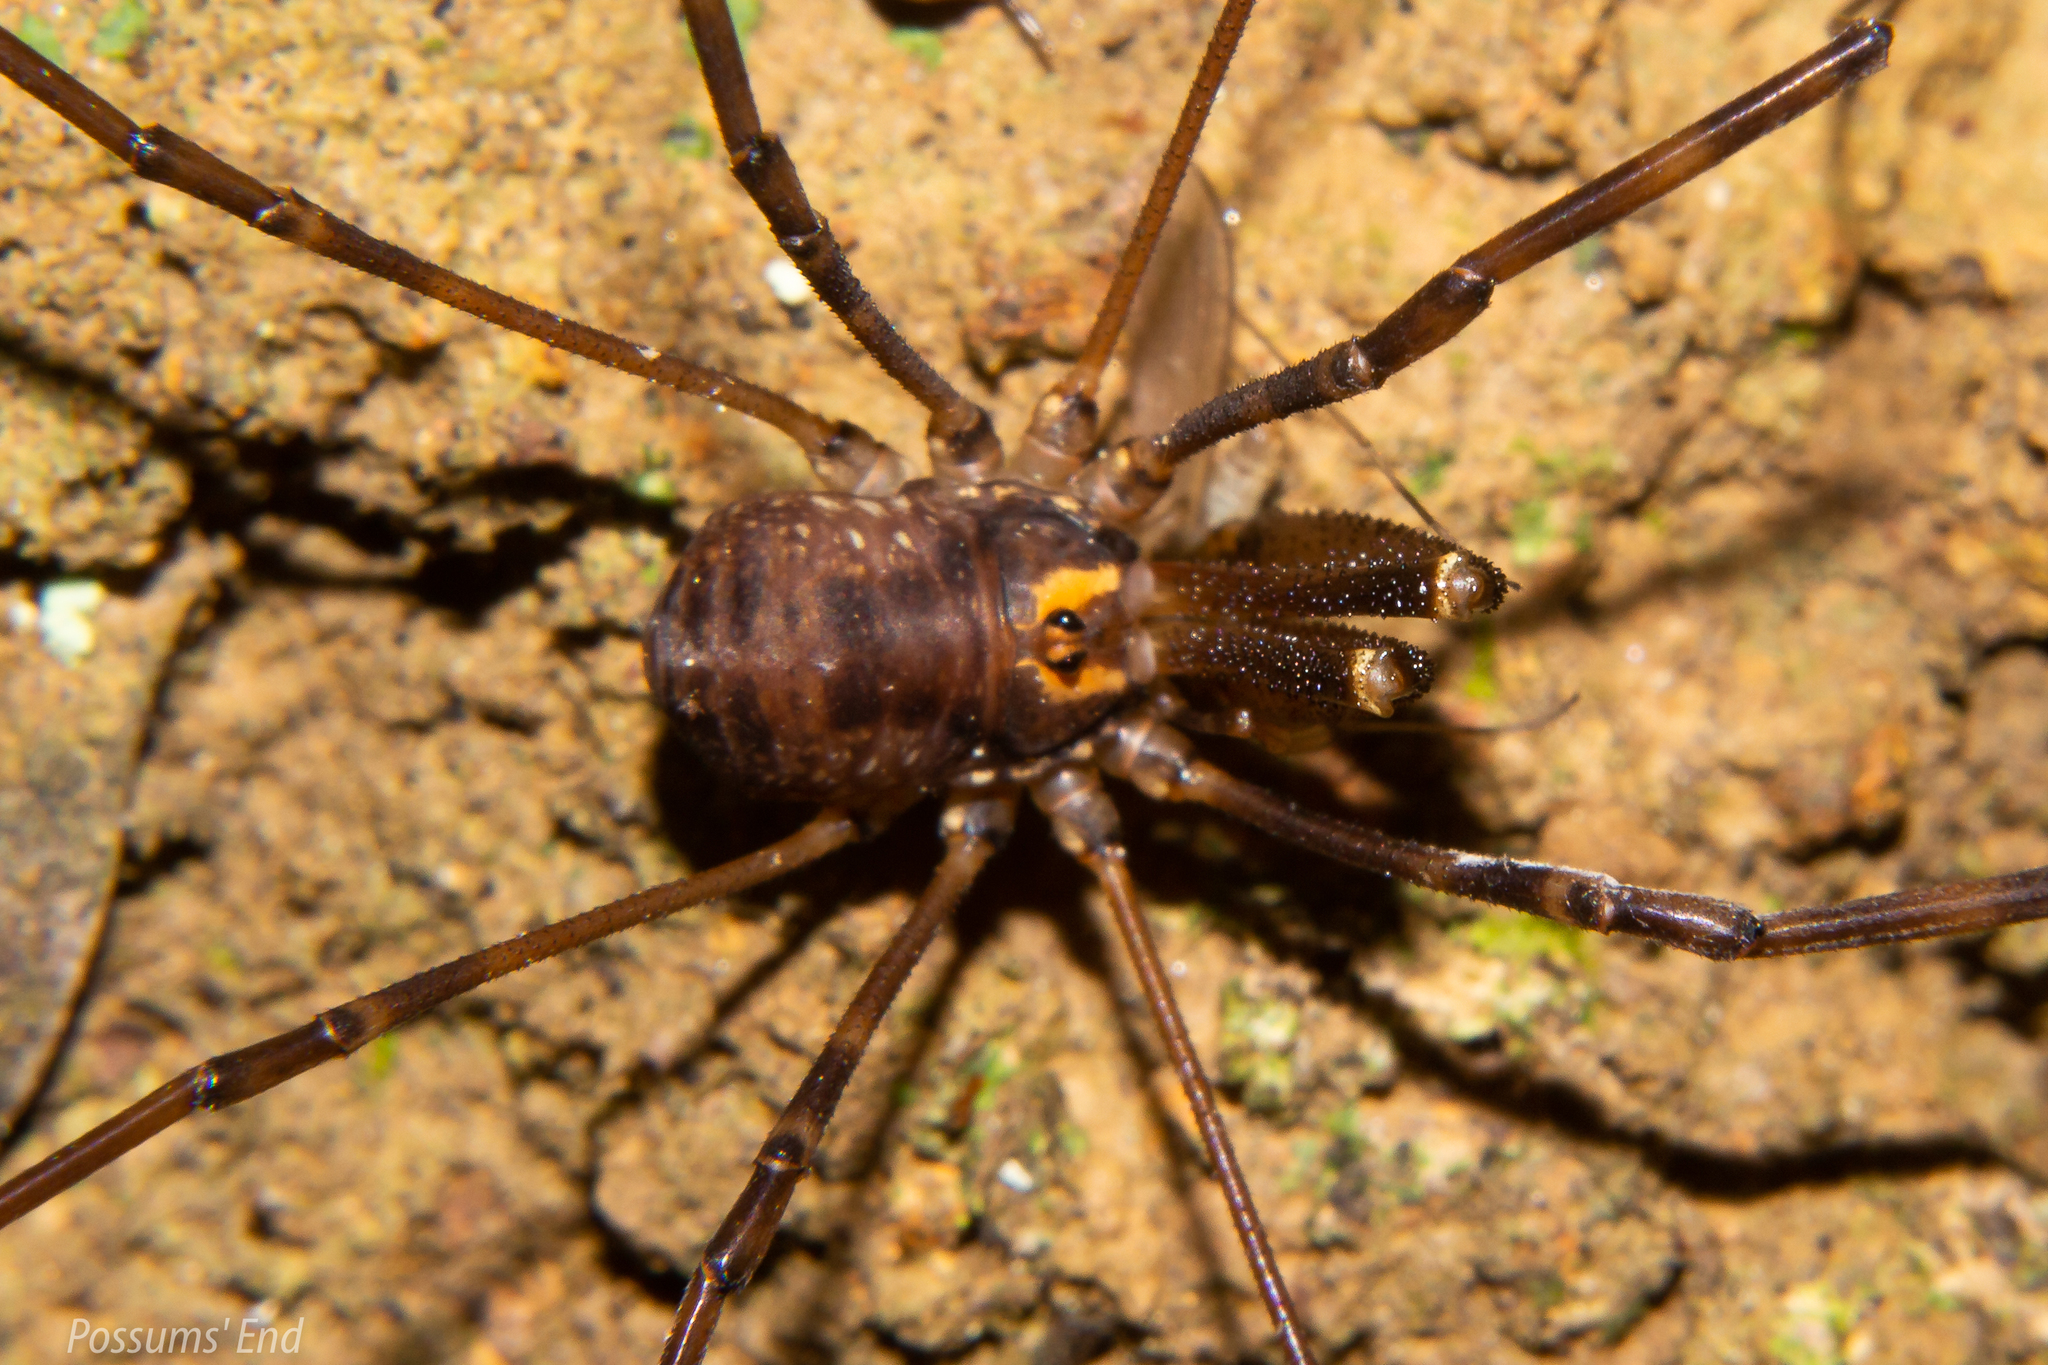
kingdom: Animalia
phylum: Arthropoda
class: Arachnida
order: Opiliones
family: Neopilionidae
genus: Forsteropsalis
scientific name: Forsteropsalis marplesi
